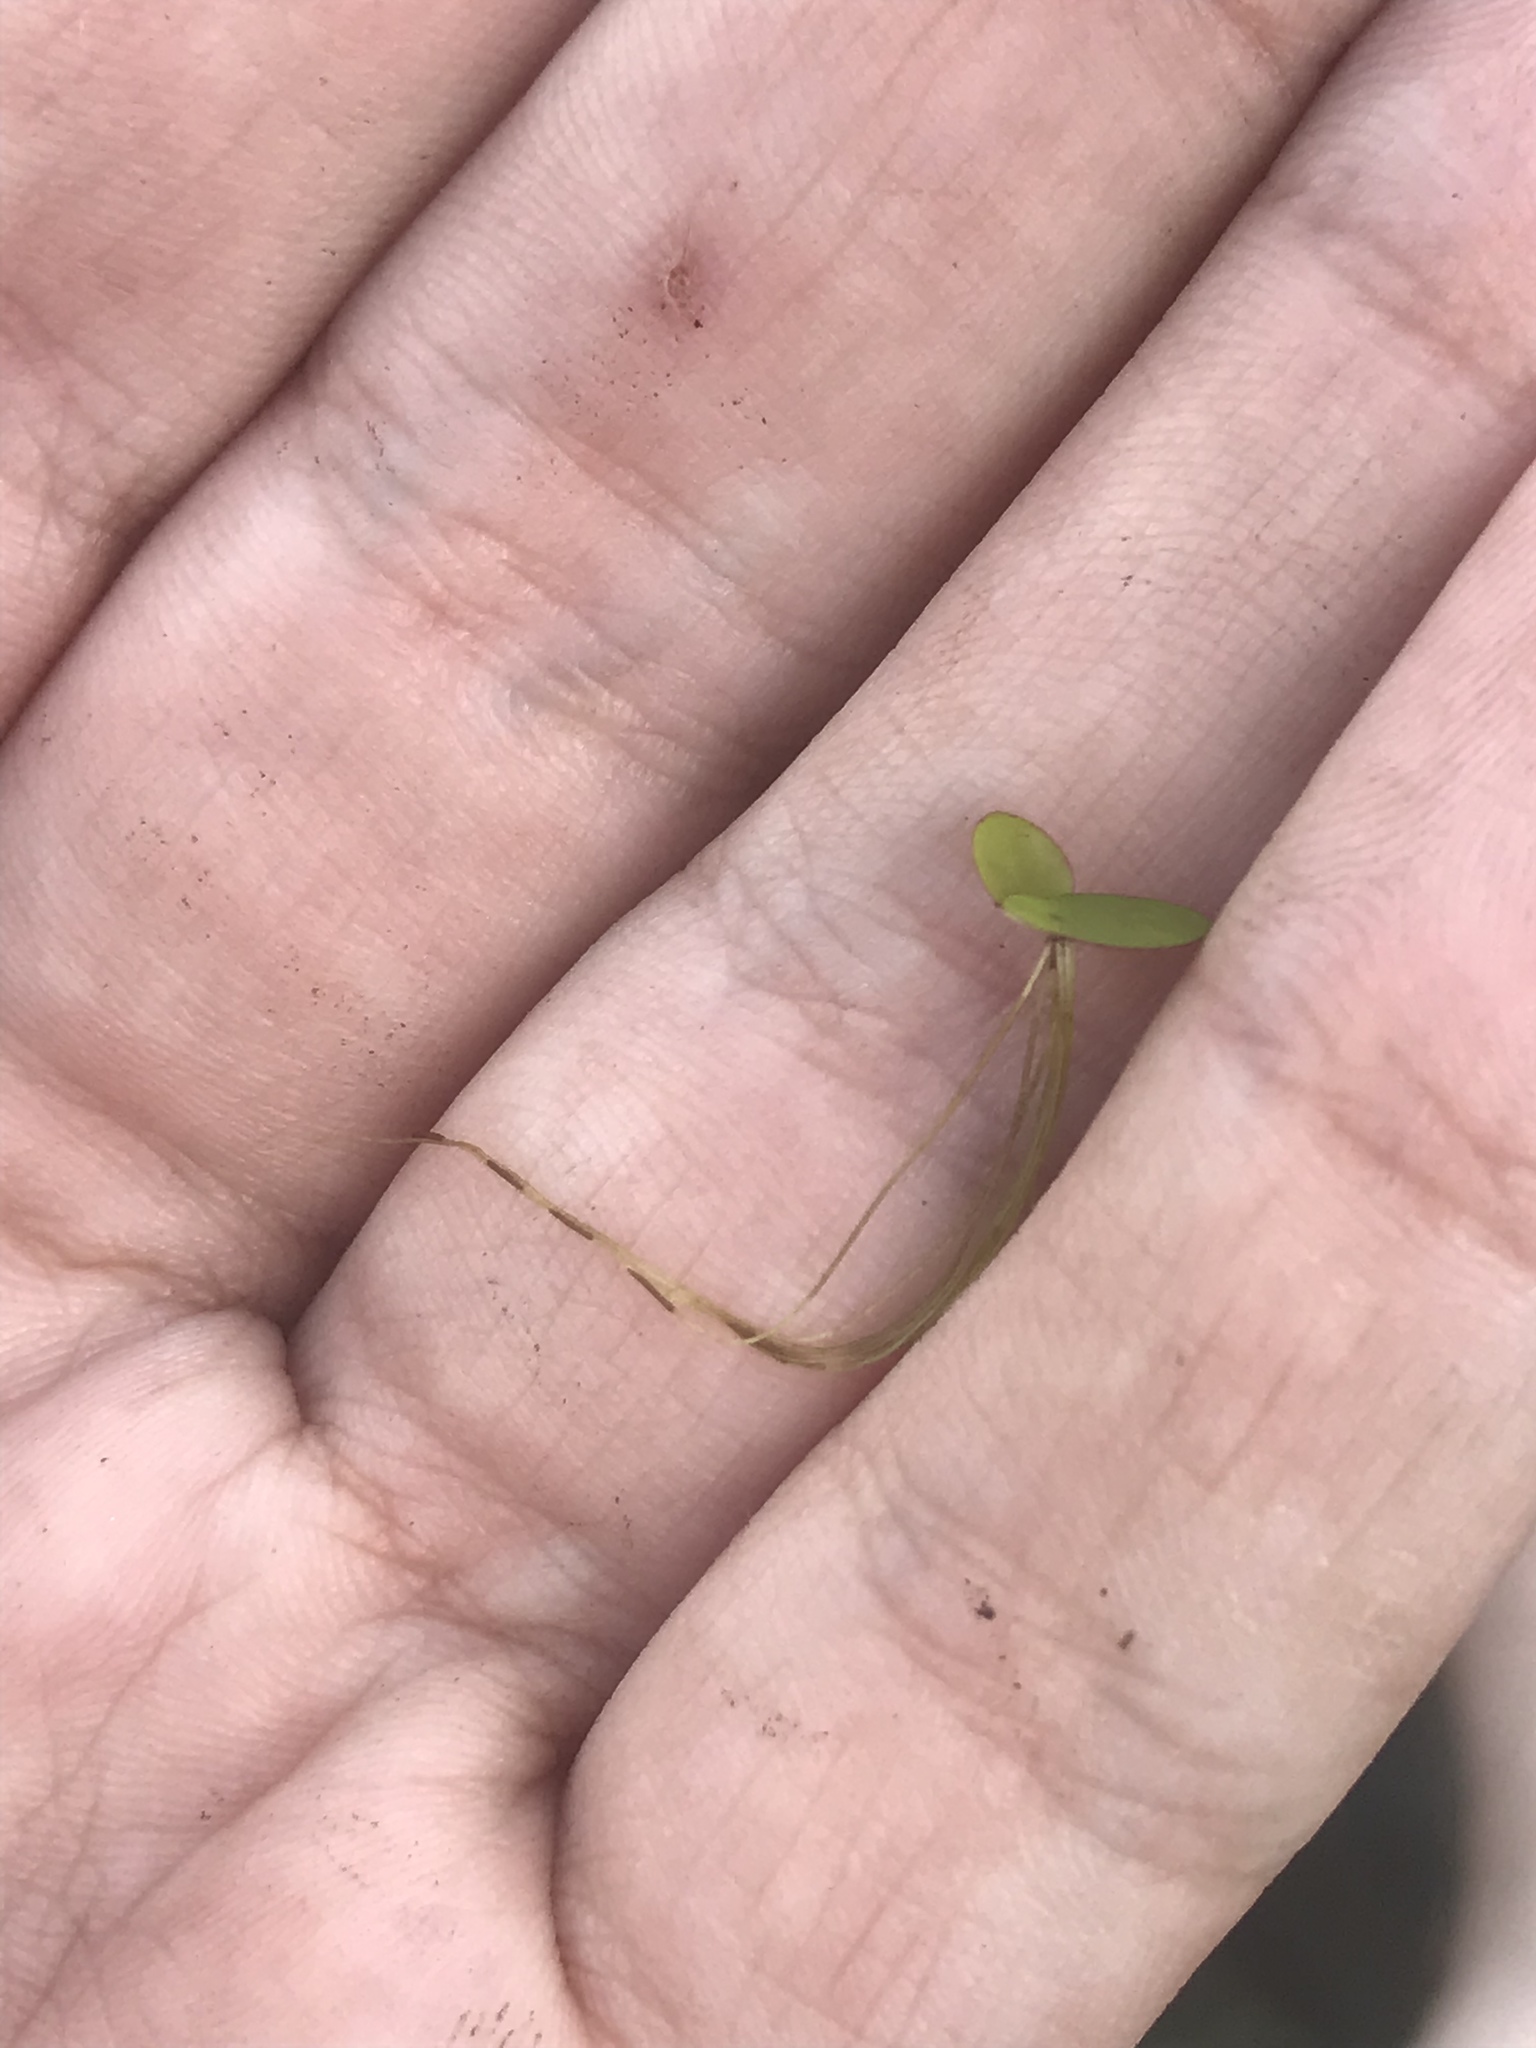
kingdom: Plantae
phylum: Tracheophyta
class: Liliopsida
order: Alismatales
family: Araceae
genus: Spirodela
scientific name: Spirodela polyrhiza
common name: Great duckweed
